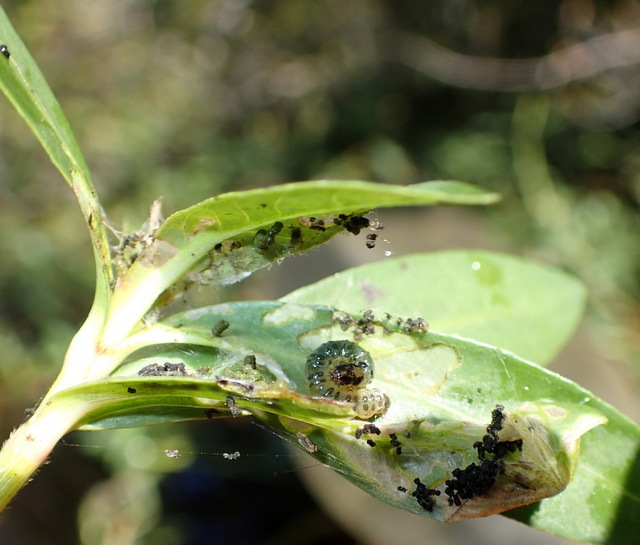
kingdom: Animalia
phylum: Arthropoda
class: Insecta
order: Coleoptera
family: Chrysomelidae
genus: Agasicles
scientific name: Agasicles hygrophila
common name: Alligatorweed flea beetle
